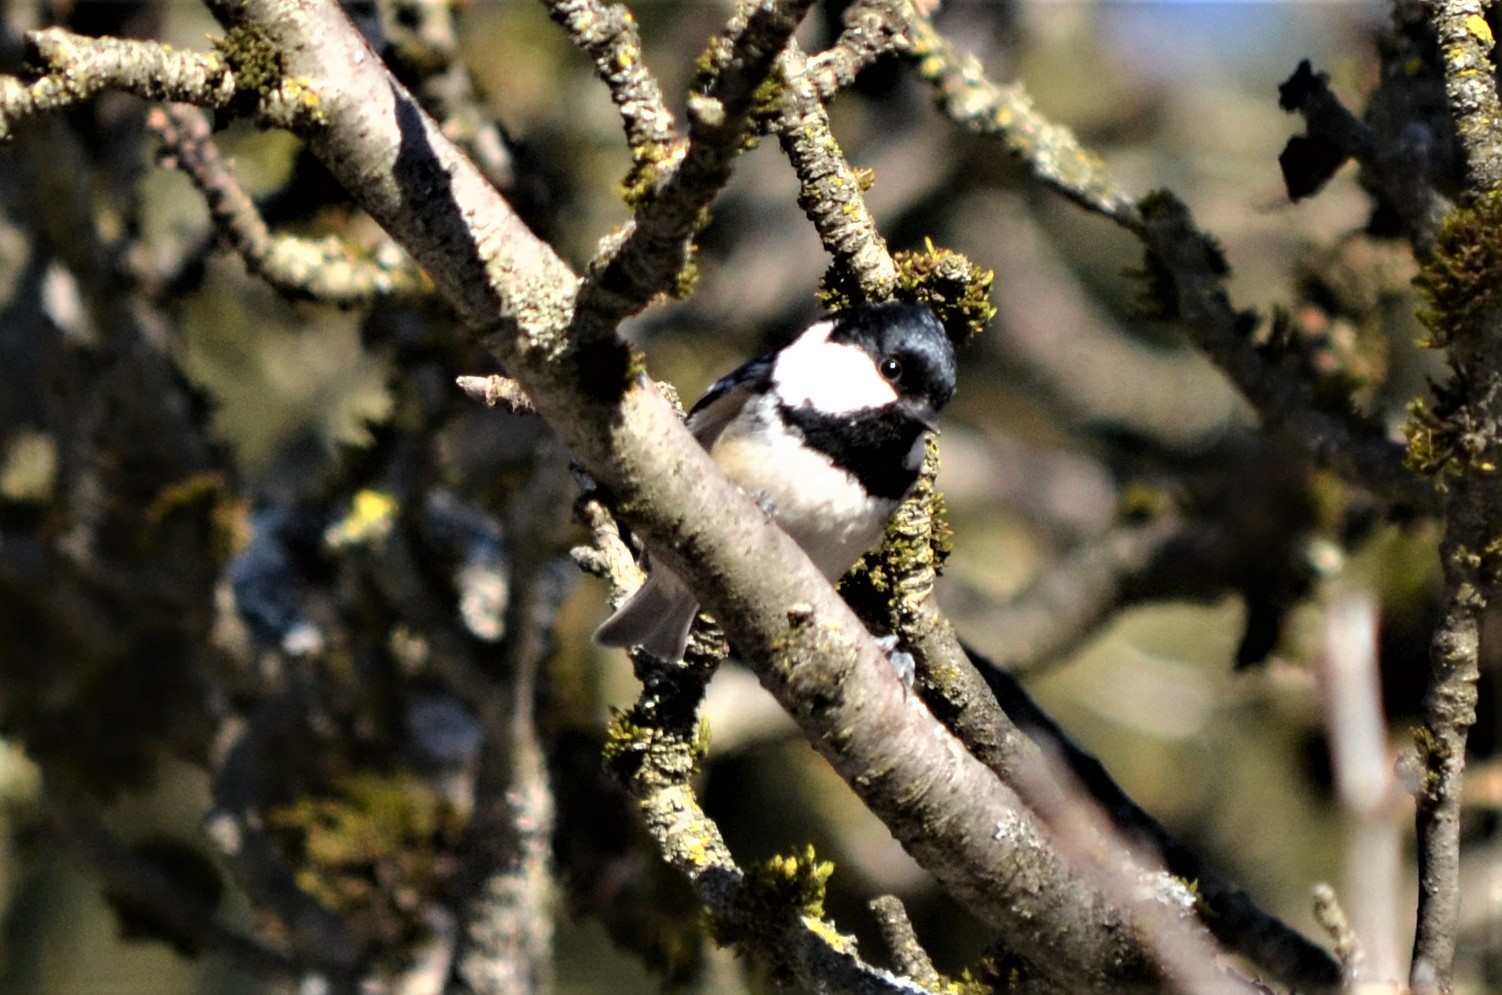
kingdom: Animalia
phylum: Chordata
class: Aves
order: Passeriformes
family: Paridae
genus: Periparus
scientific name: Periparus ater
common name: Coal tit
